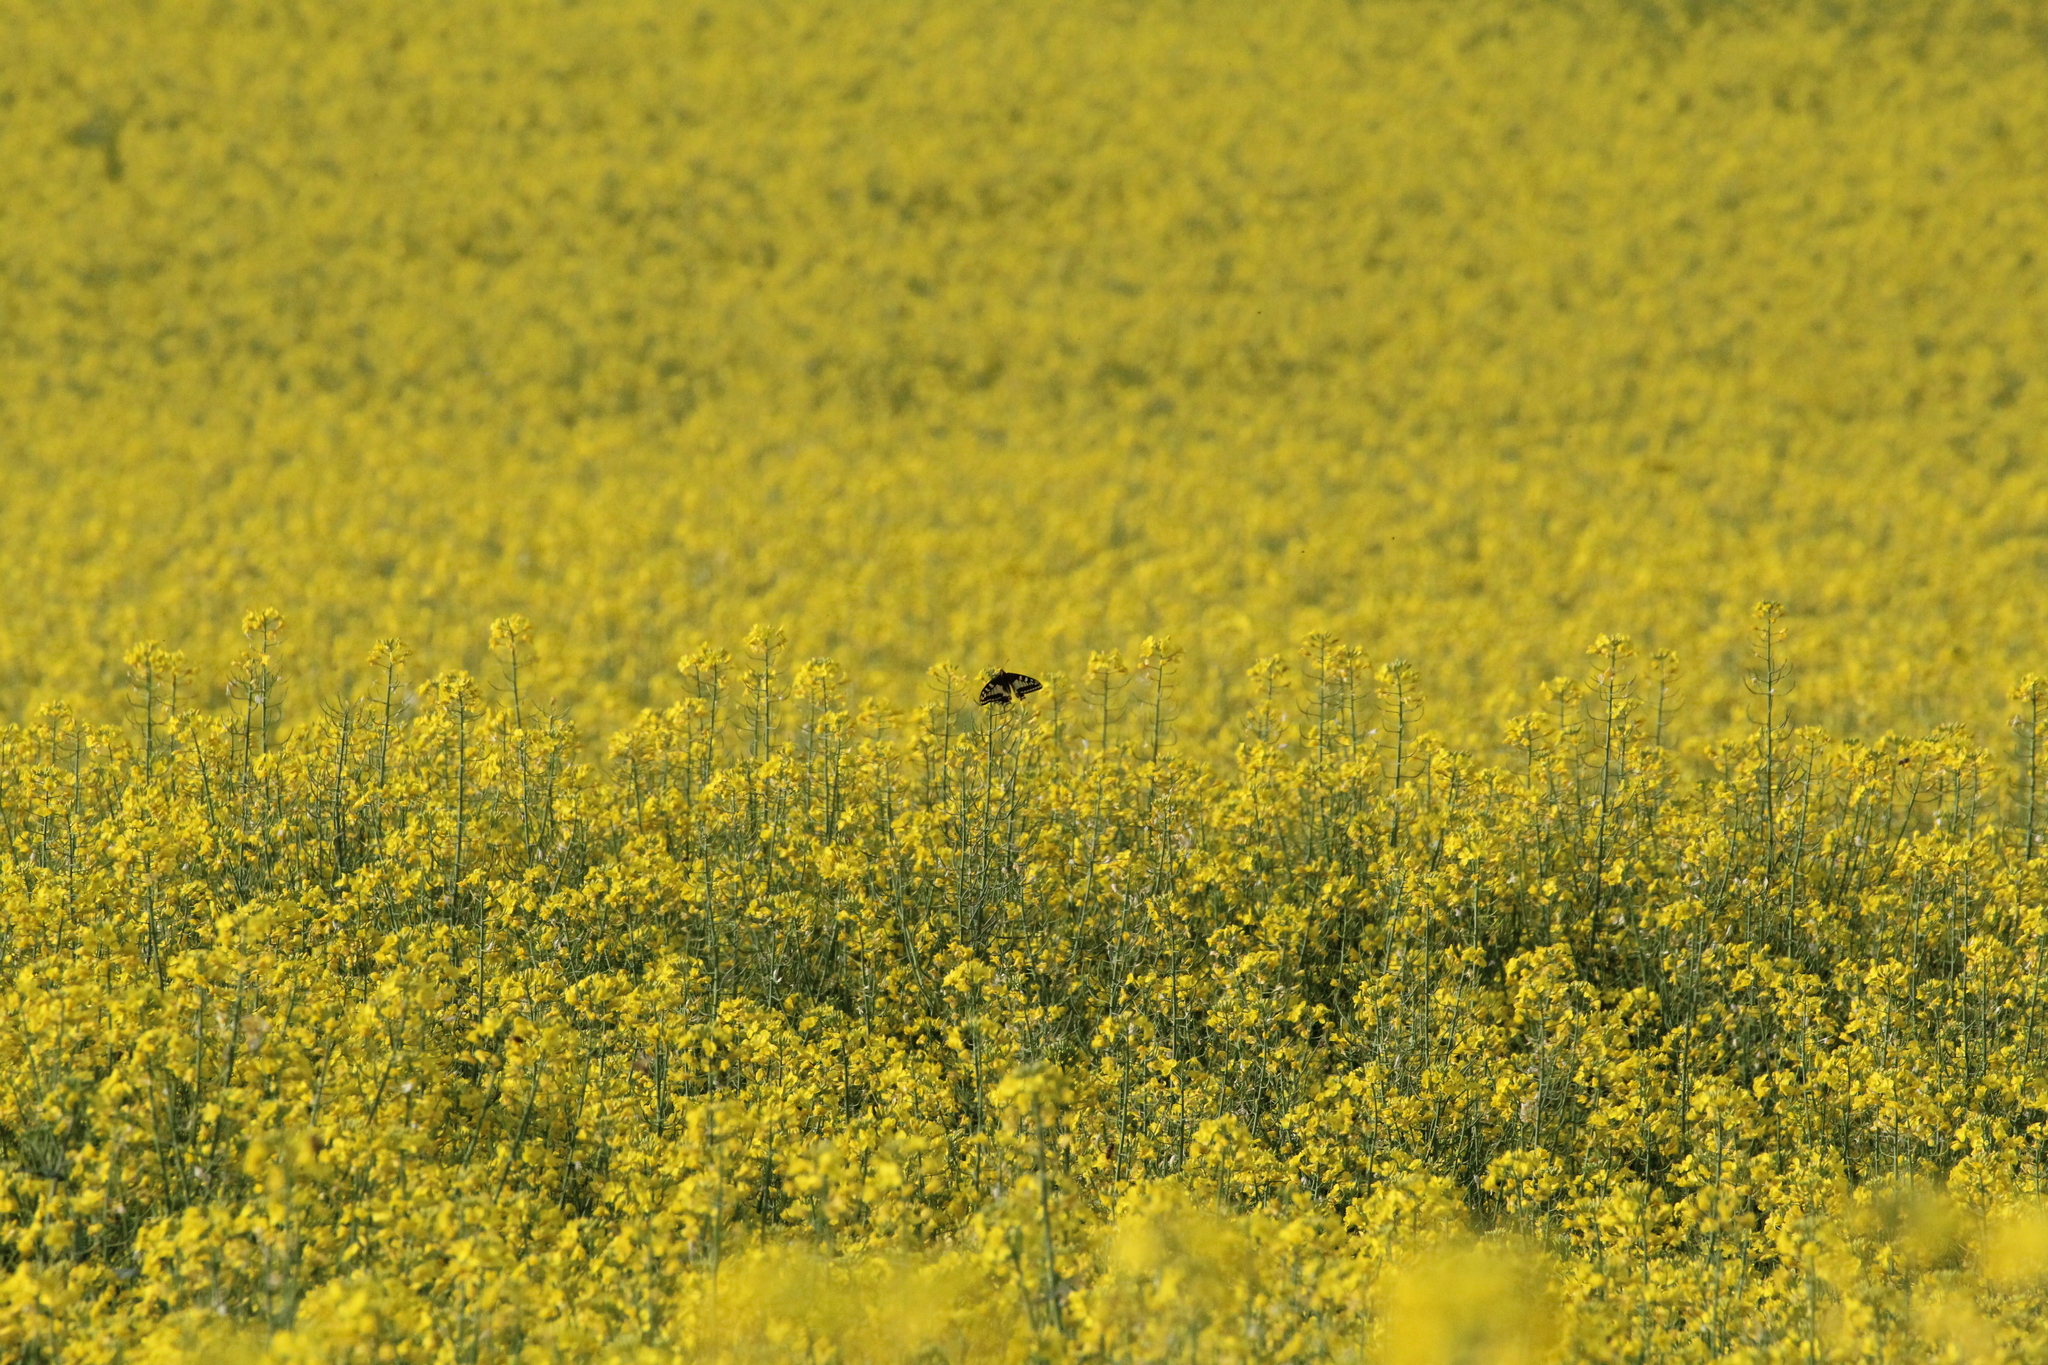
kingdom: Animalia
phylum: Arthropoda
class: Insecta
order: Lepidoptera
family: Papilionidae
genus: Papilio
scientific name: Papilio machaon
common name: Swallowtail
